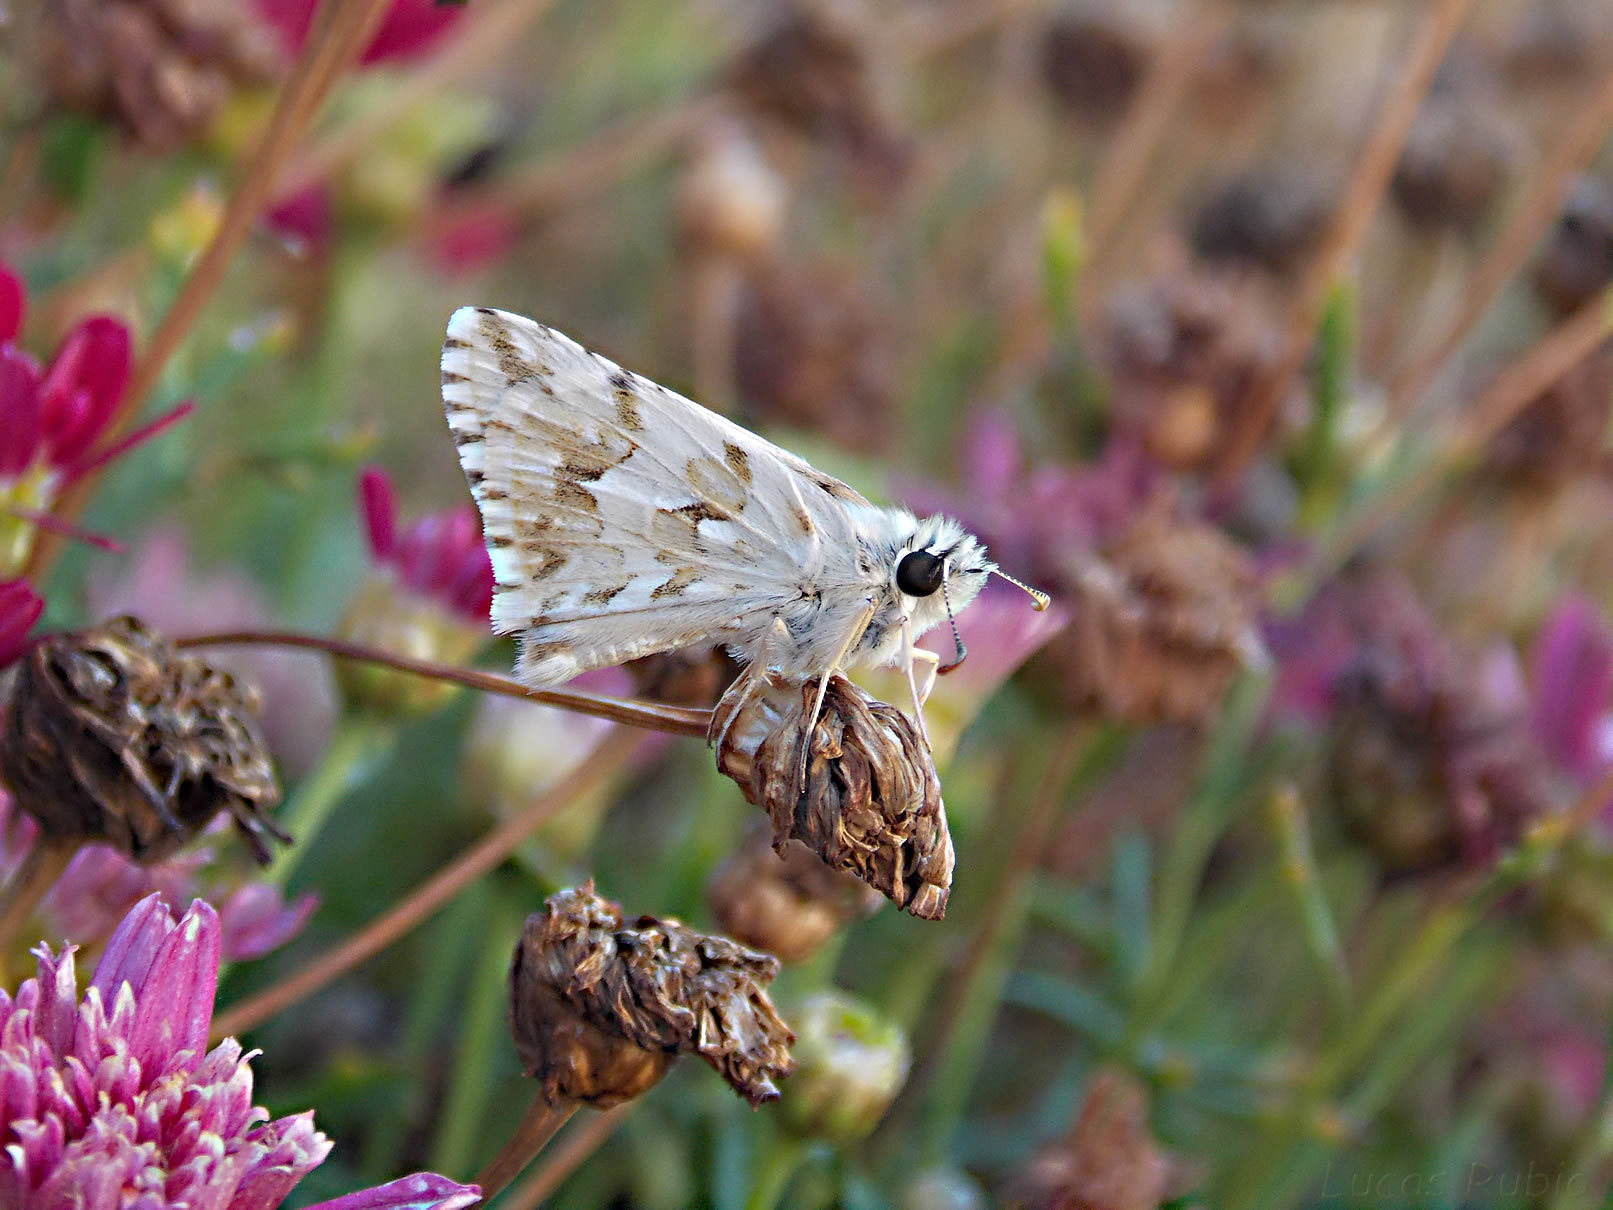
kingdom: Animalia
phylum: Arthropoda
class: Insecta
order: Lepidoptera
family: Hesperiidae
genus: Heliopetes
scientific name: Heliopetes americanus
